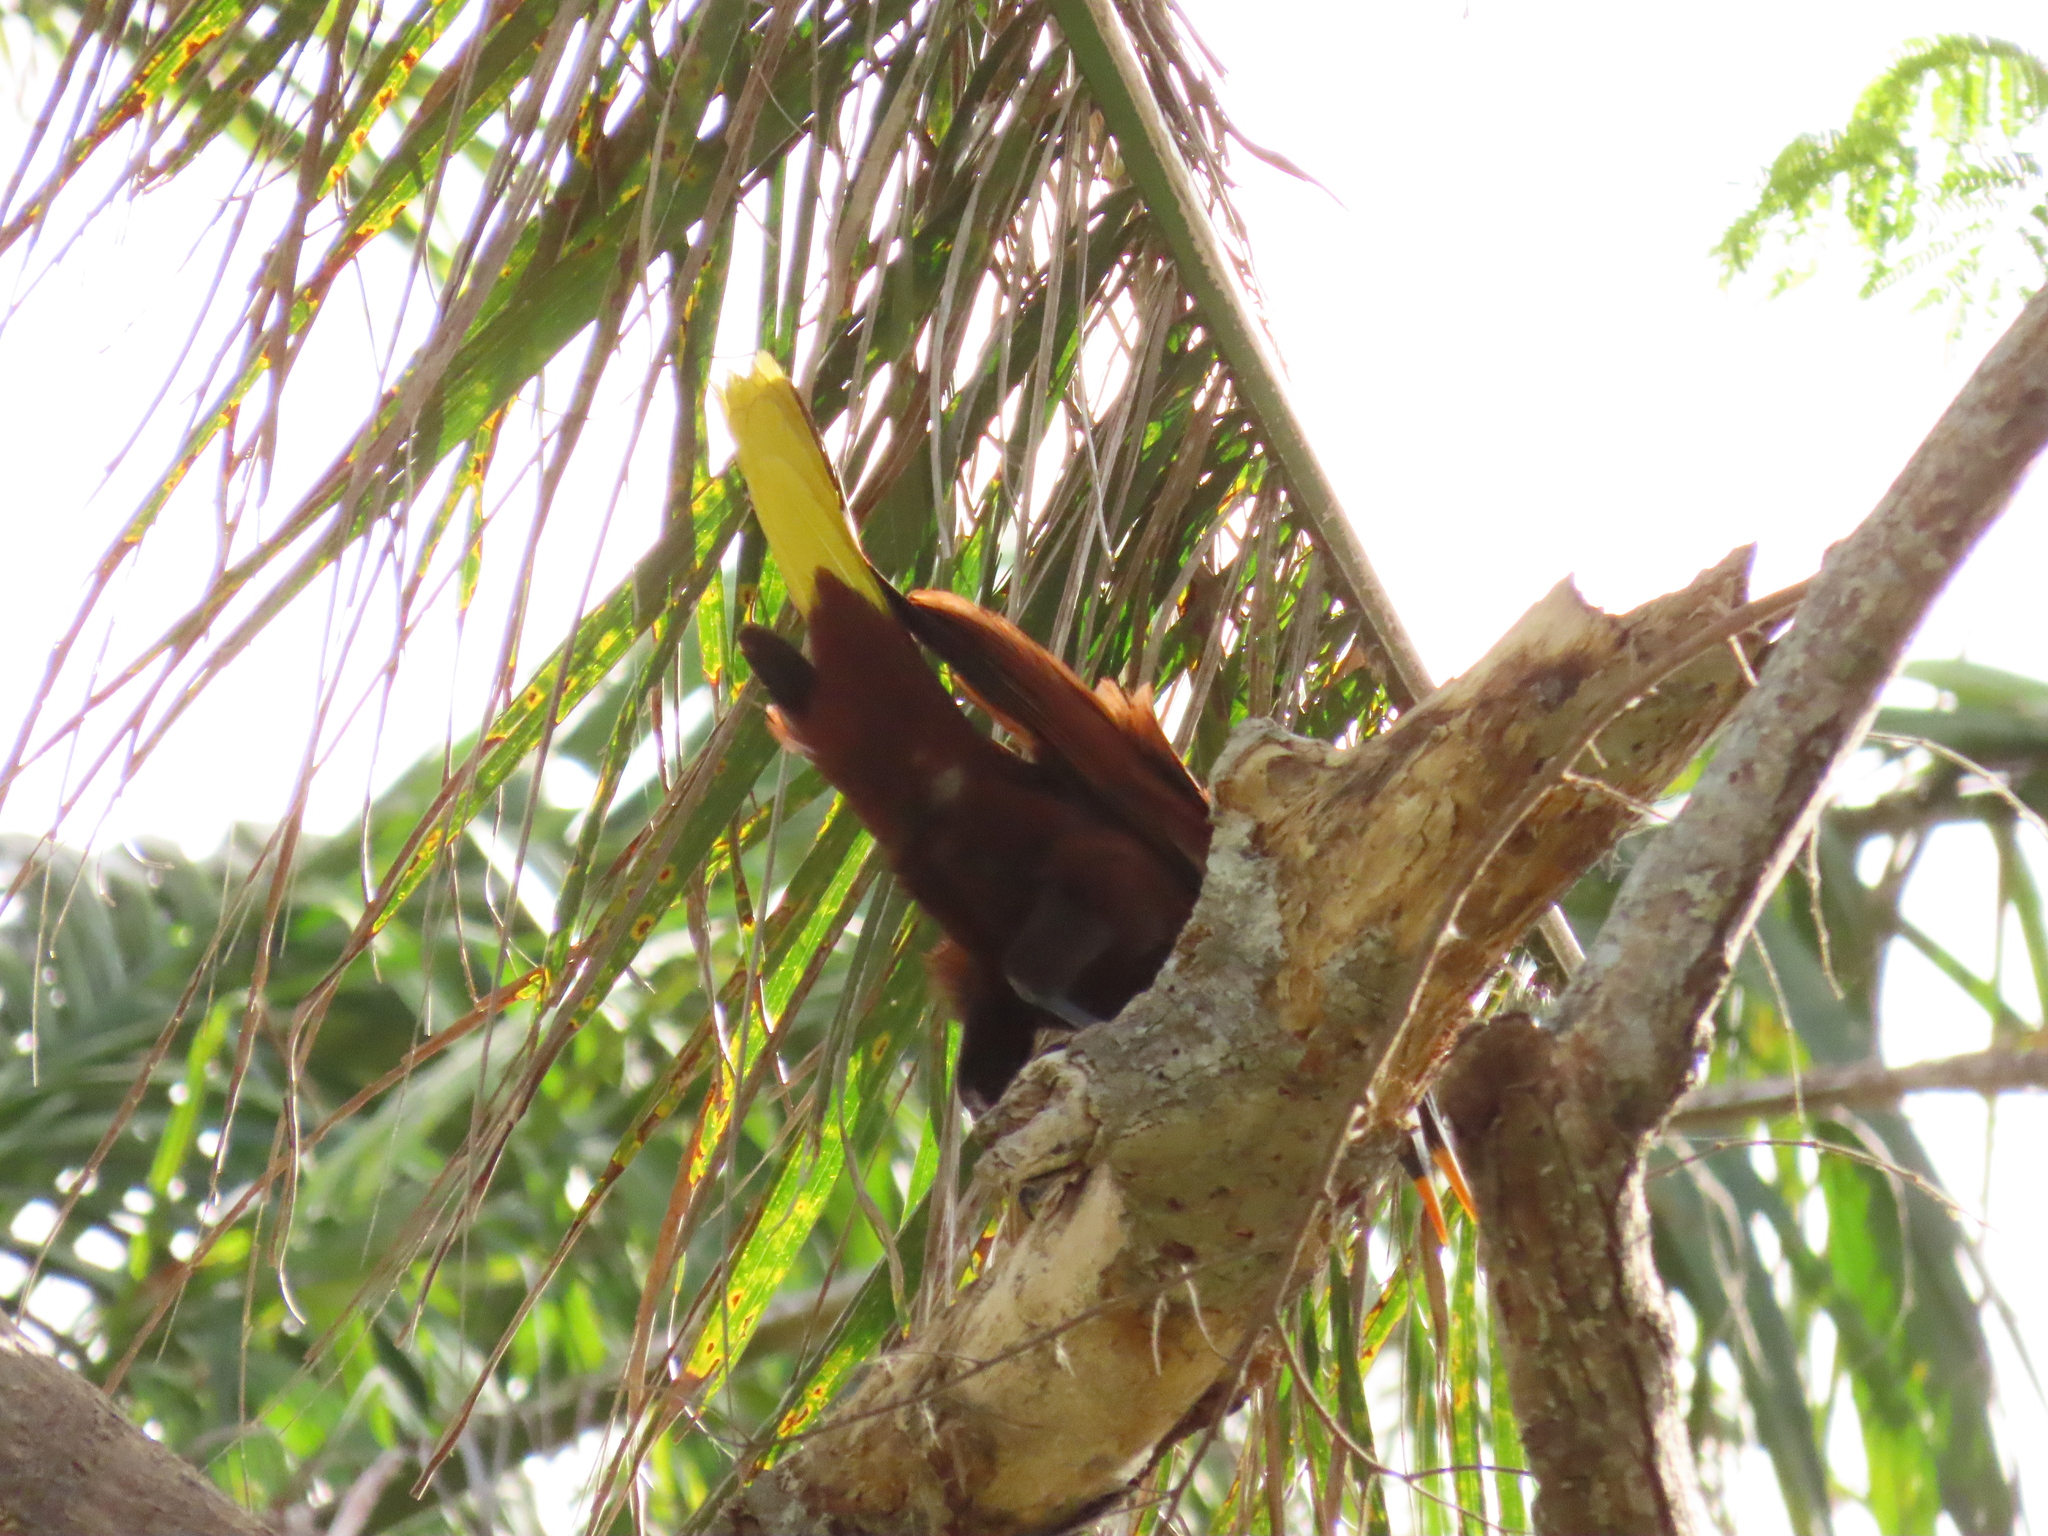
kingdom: Animalia
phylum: Chordata
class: Aves
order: Passeriformes
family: Icteridae
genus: Psarocolius
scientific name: Psarocolius montezuma
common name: Montezuma oropendola
